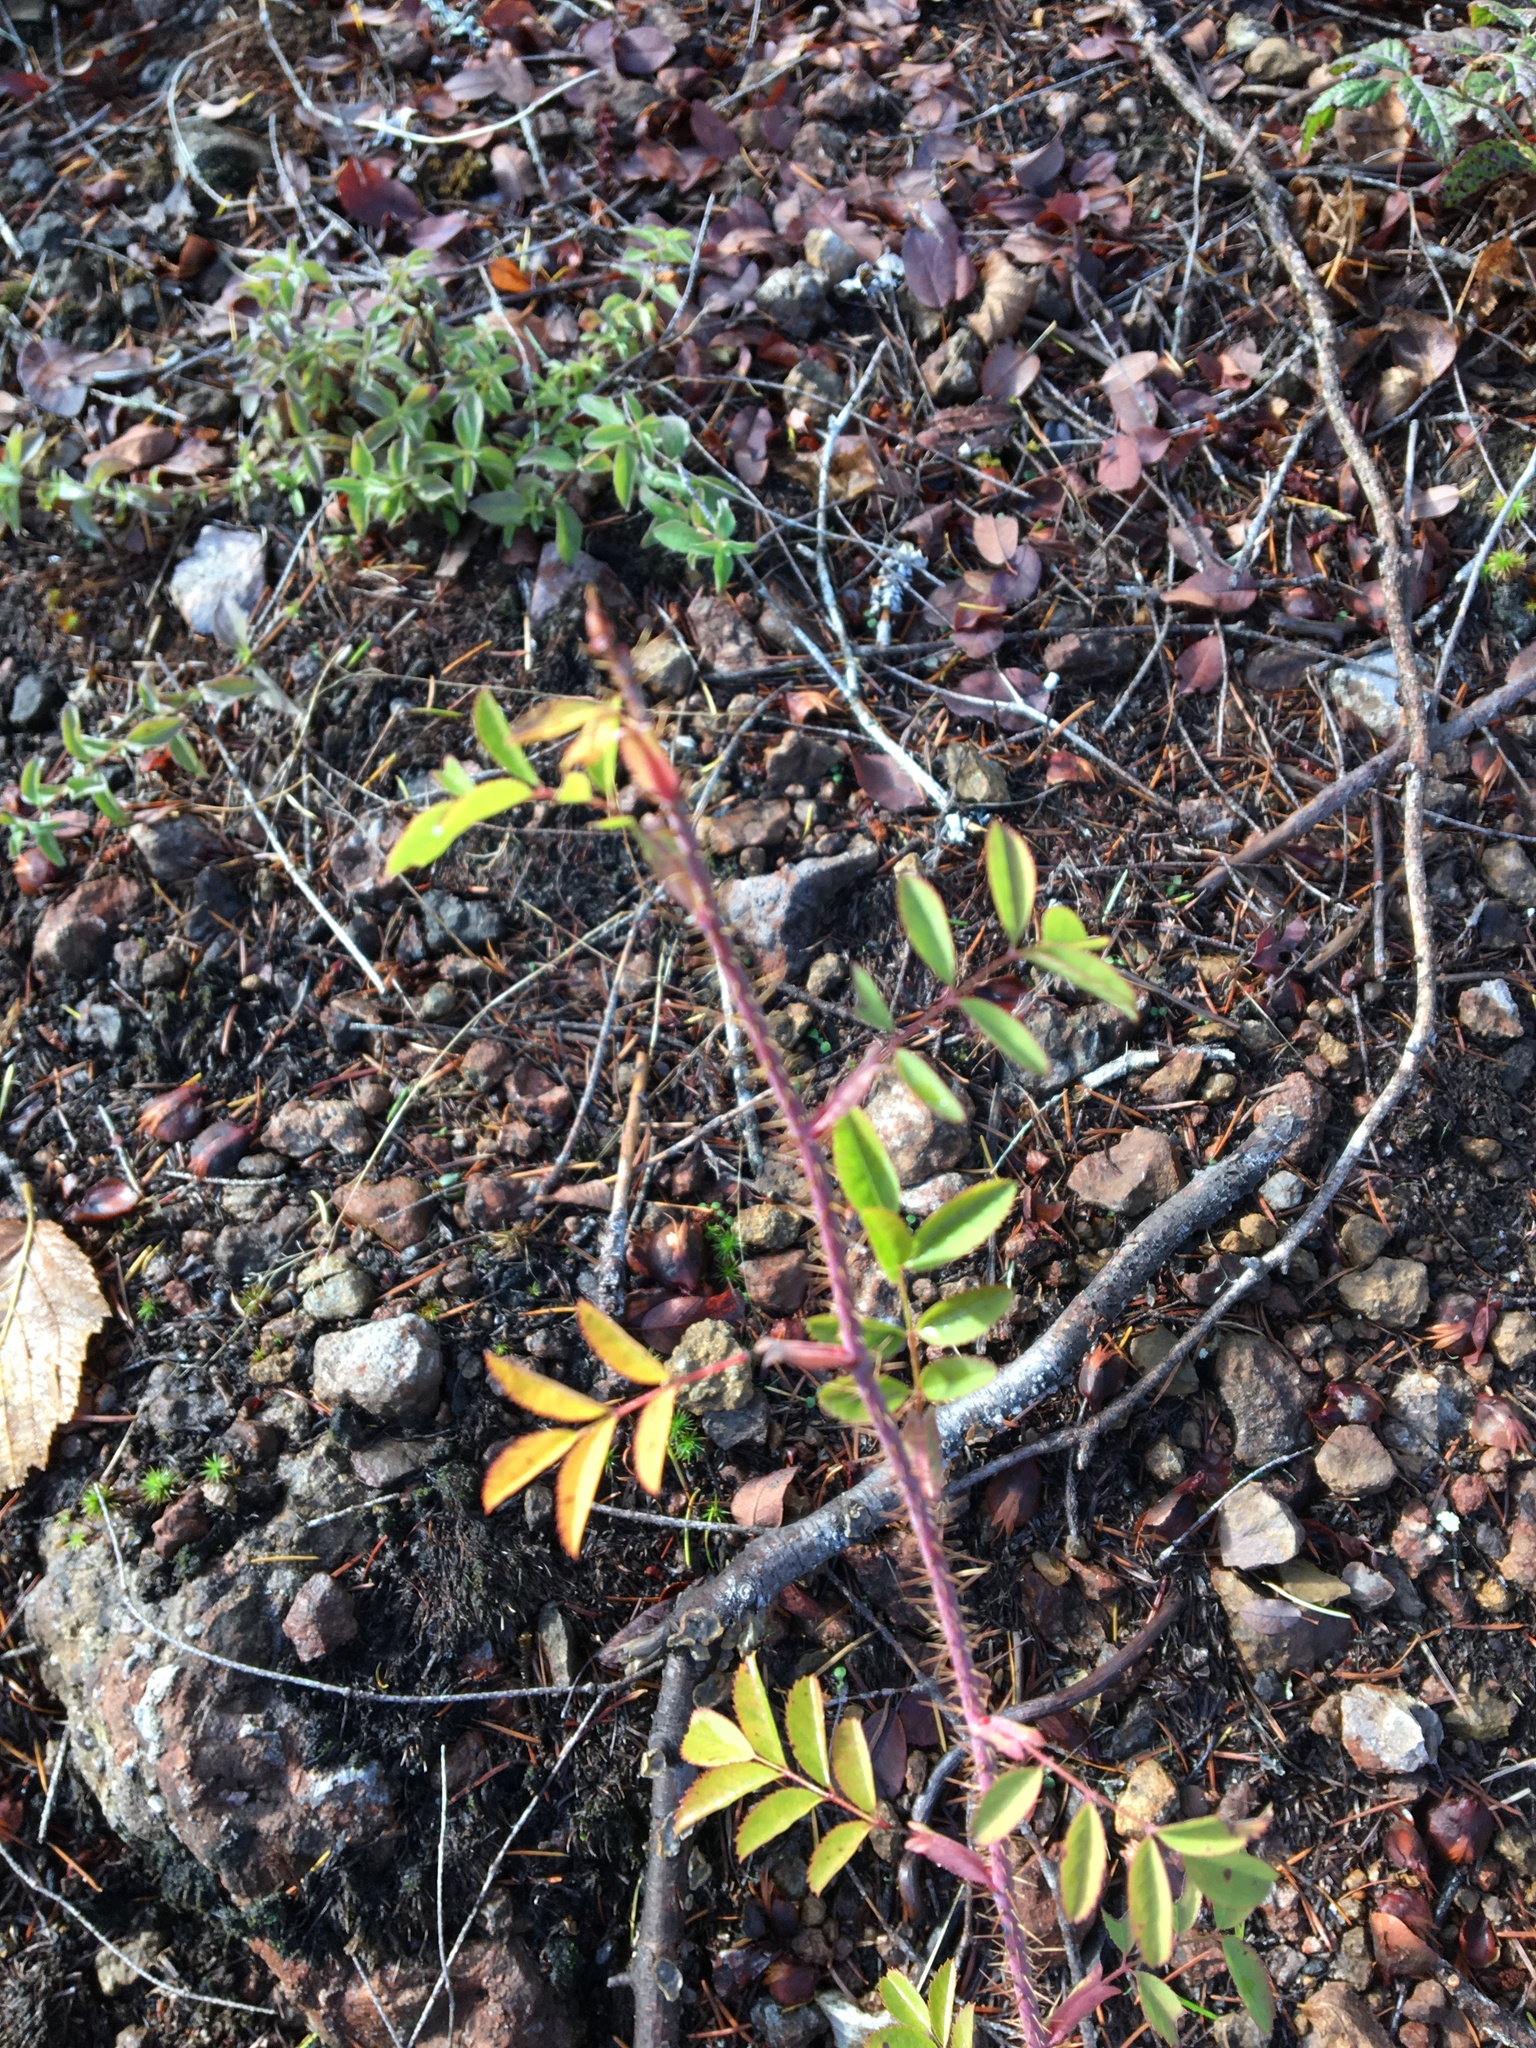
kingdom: Plantae
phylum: Tracheophyta
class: Magnoliopsida
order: Rosales
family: Rosaceae
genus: Rosa
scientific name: Rosa gymnocarpa
